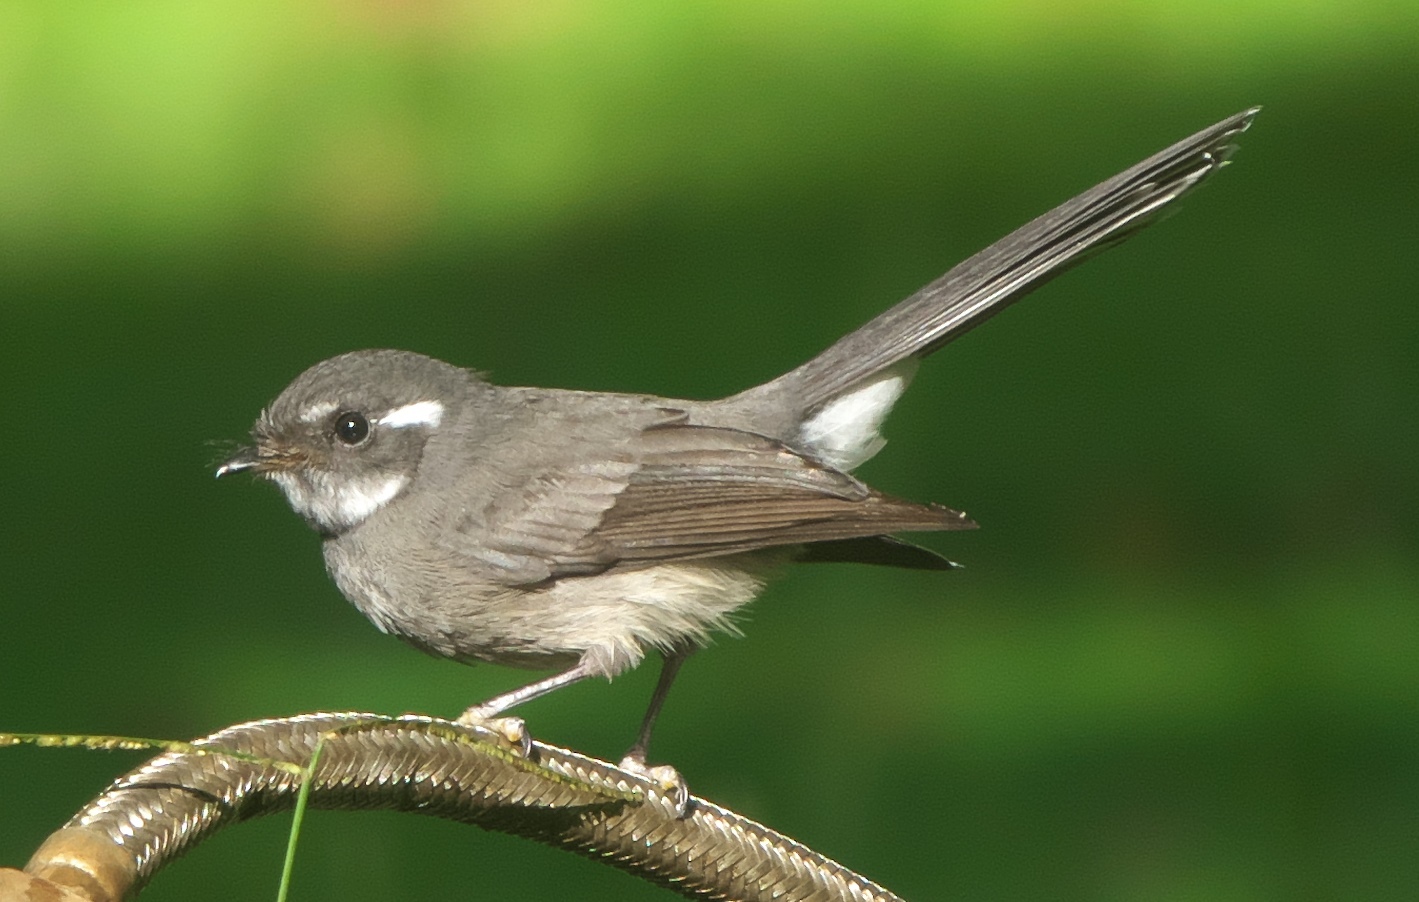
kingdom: Animalia
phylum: Chordata
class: Aves
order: Passeriformes
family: Rhipiduridae
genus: Rhipidura
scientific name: Rhipidura nebulosa
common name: Samoan fantail
